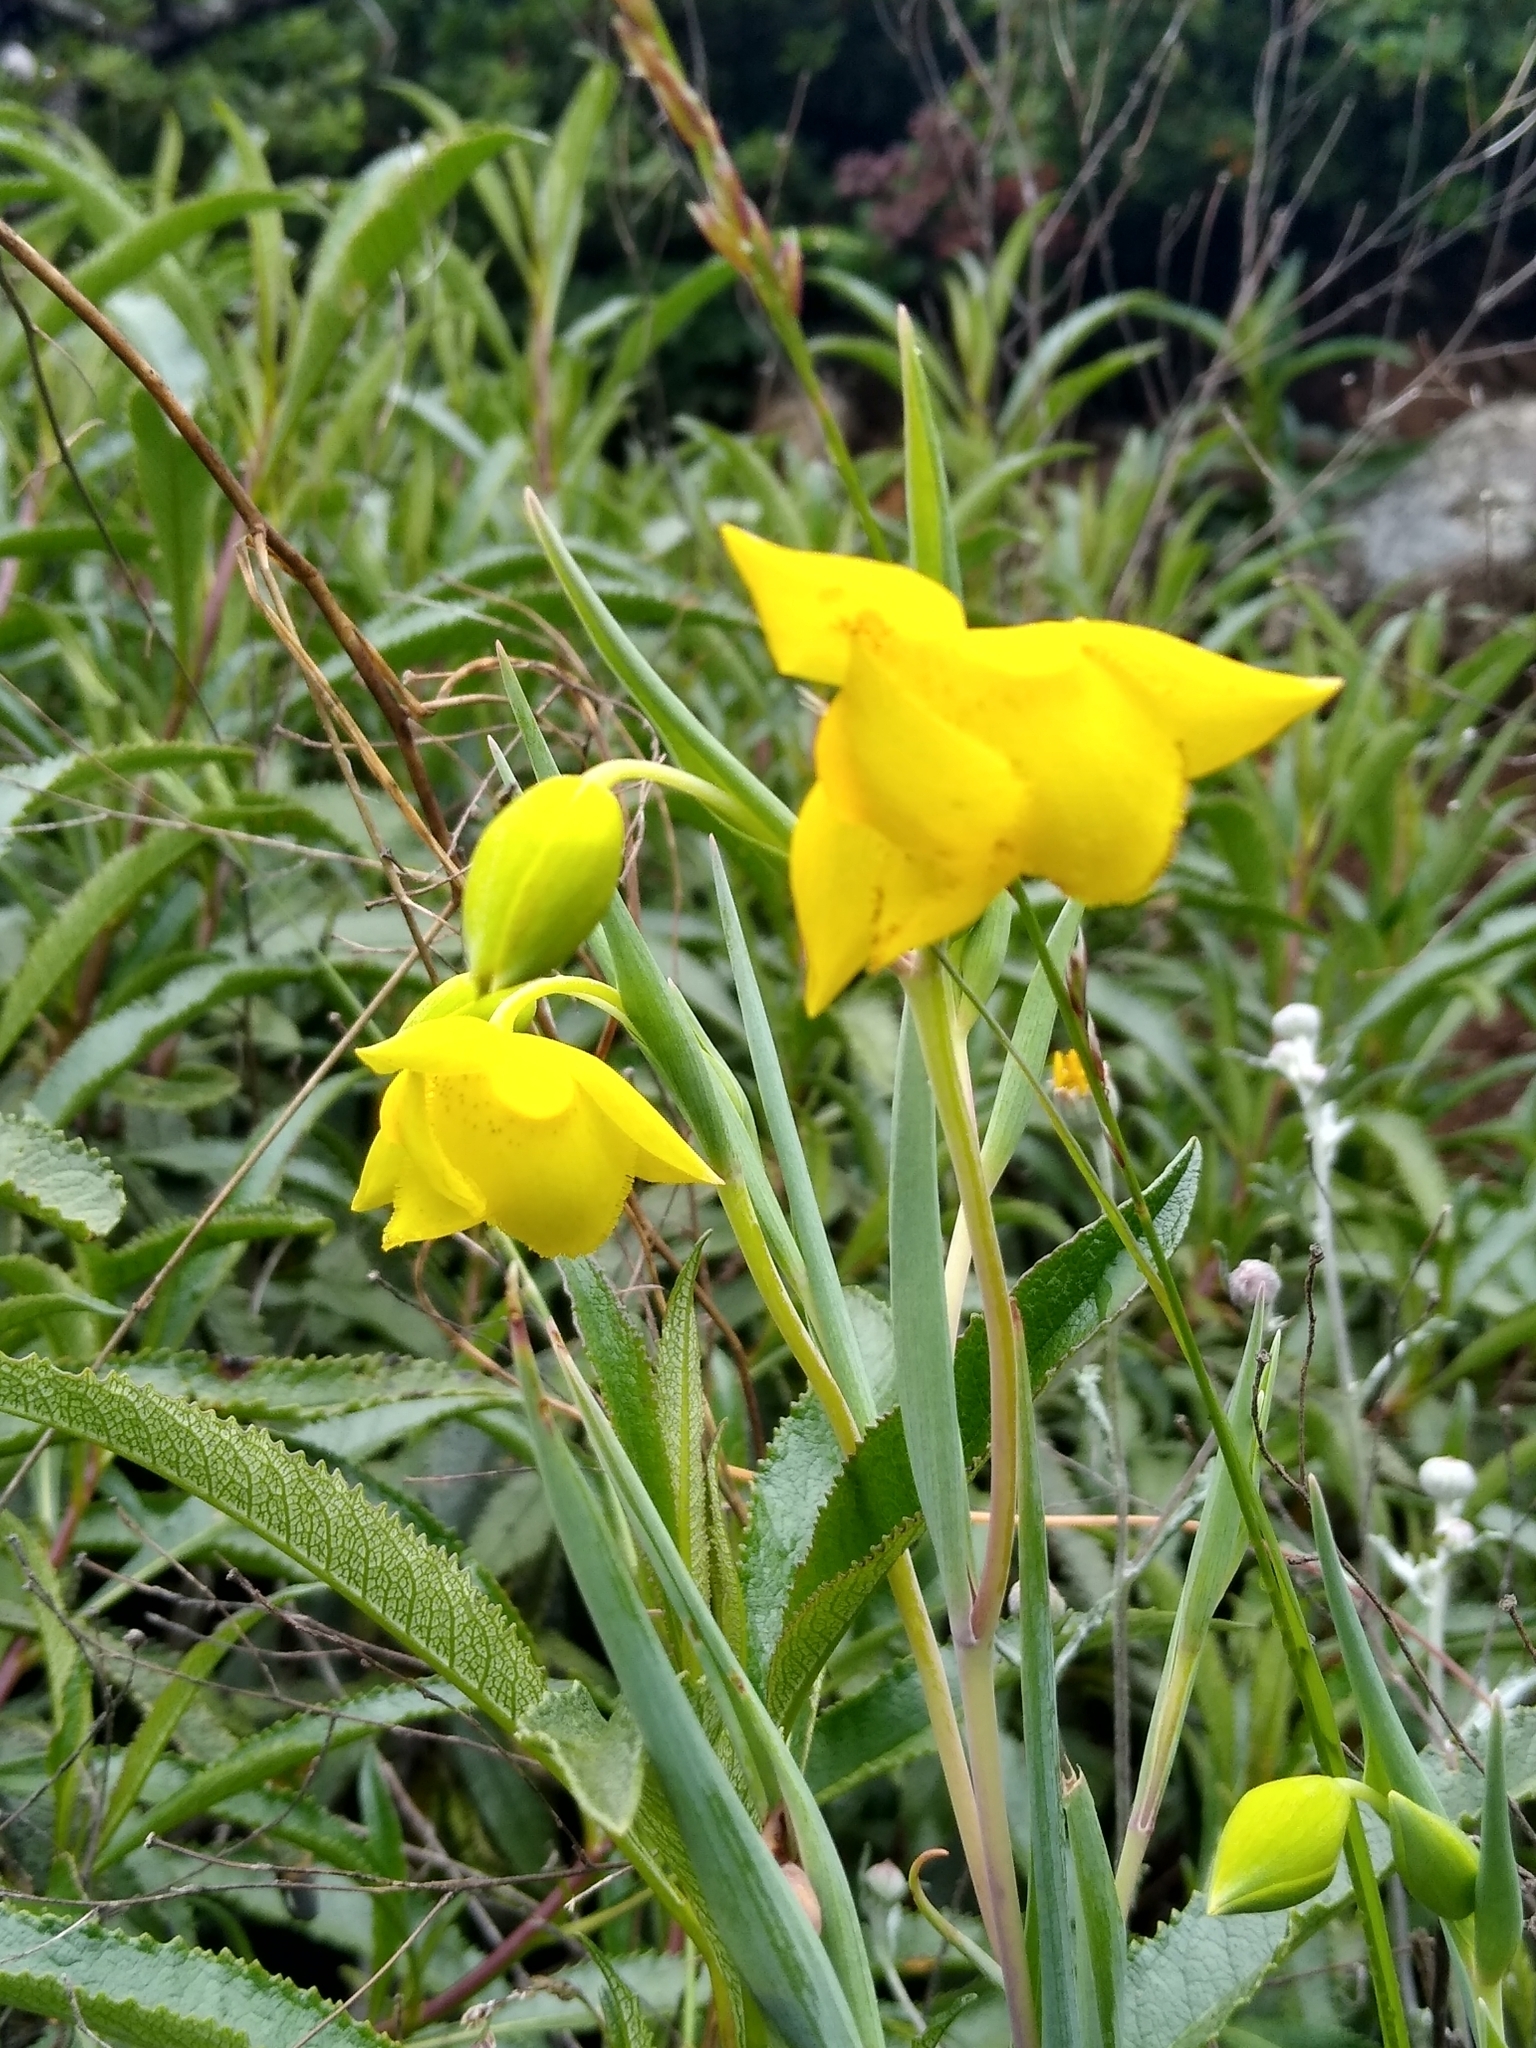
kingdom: Plantae
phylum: Tracheophyta
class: Liliopsida
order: Liliales
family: Liliaceae
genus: Calochortus
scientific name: Calochortus amabilis
